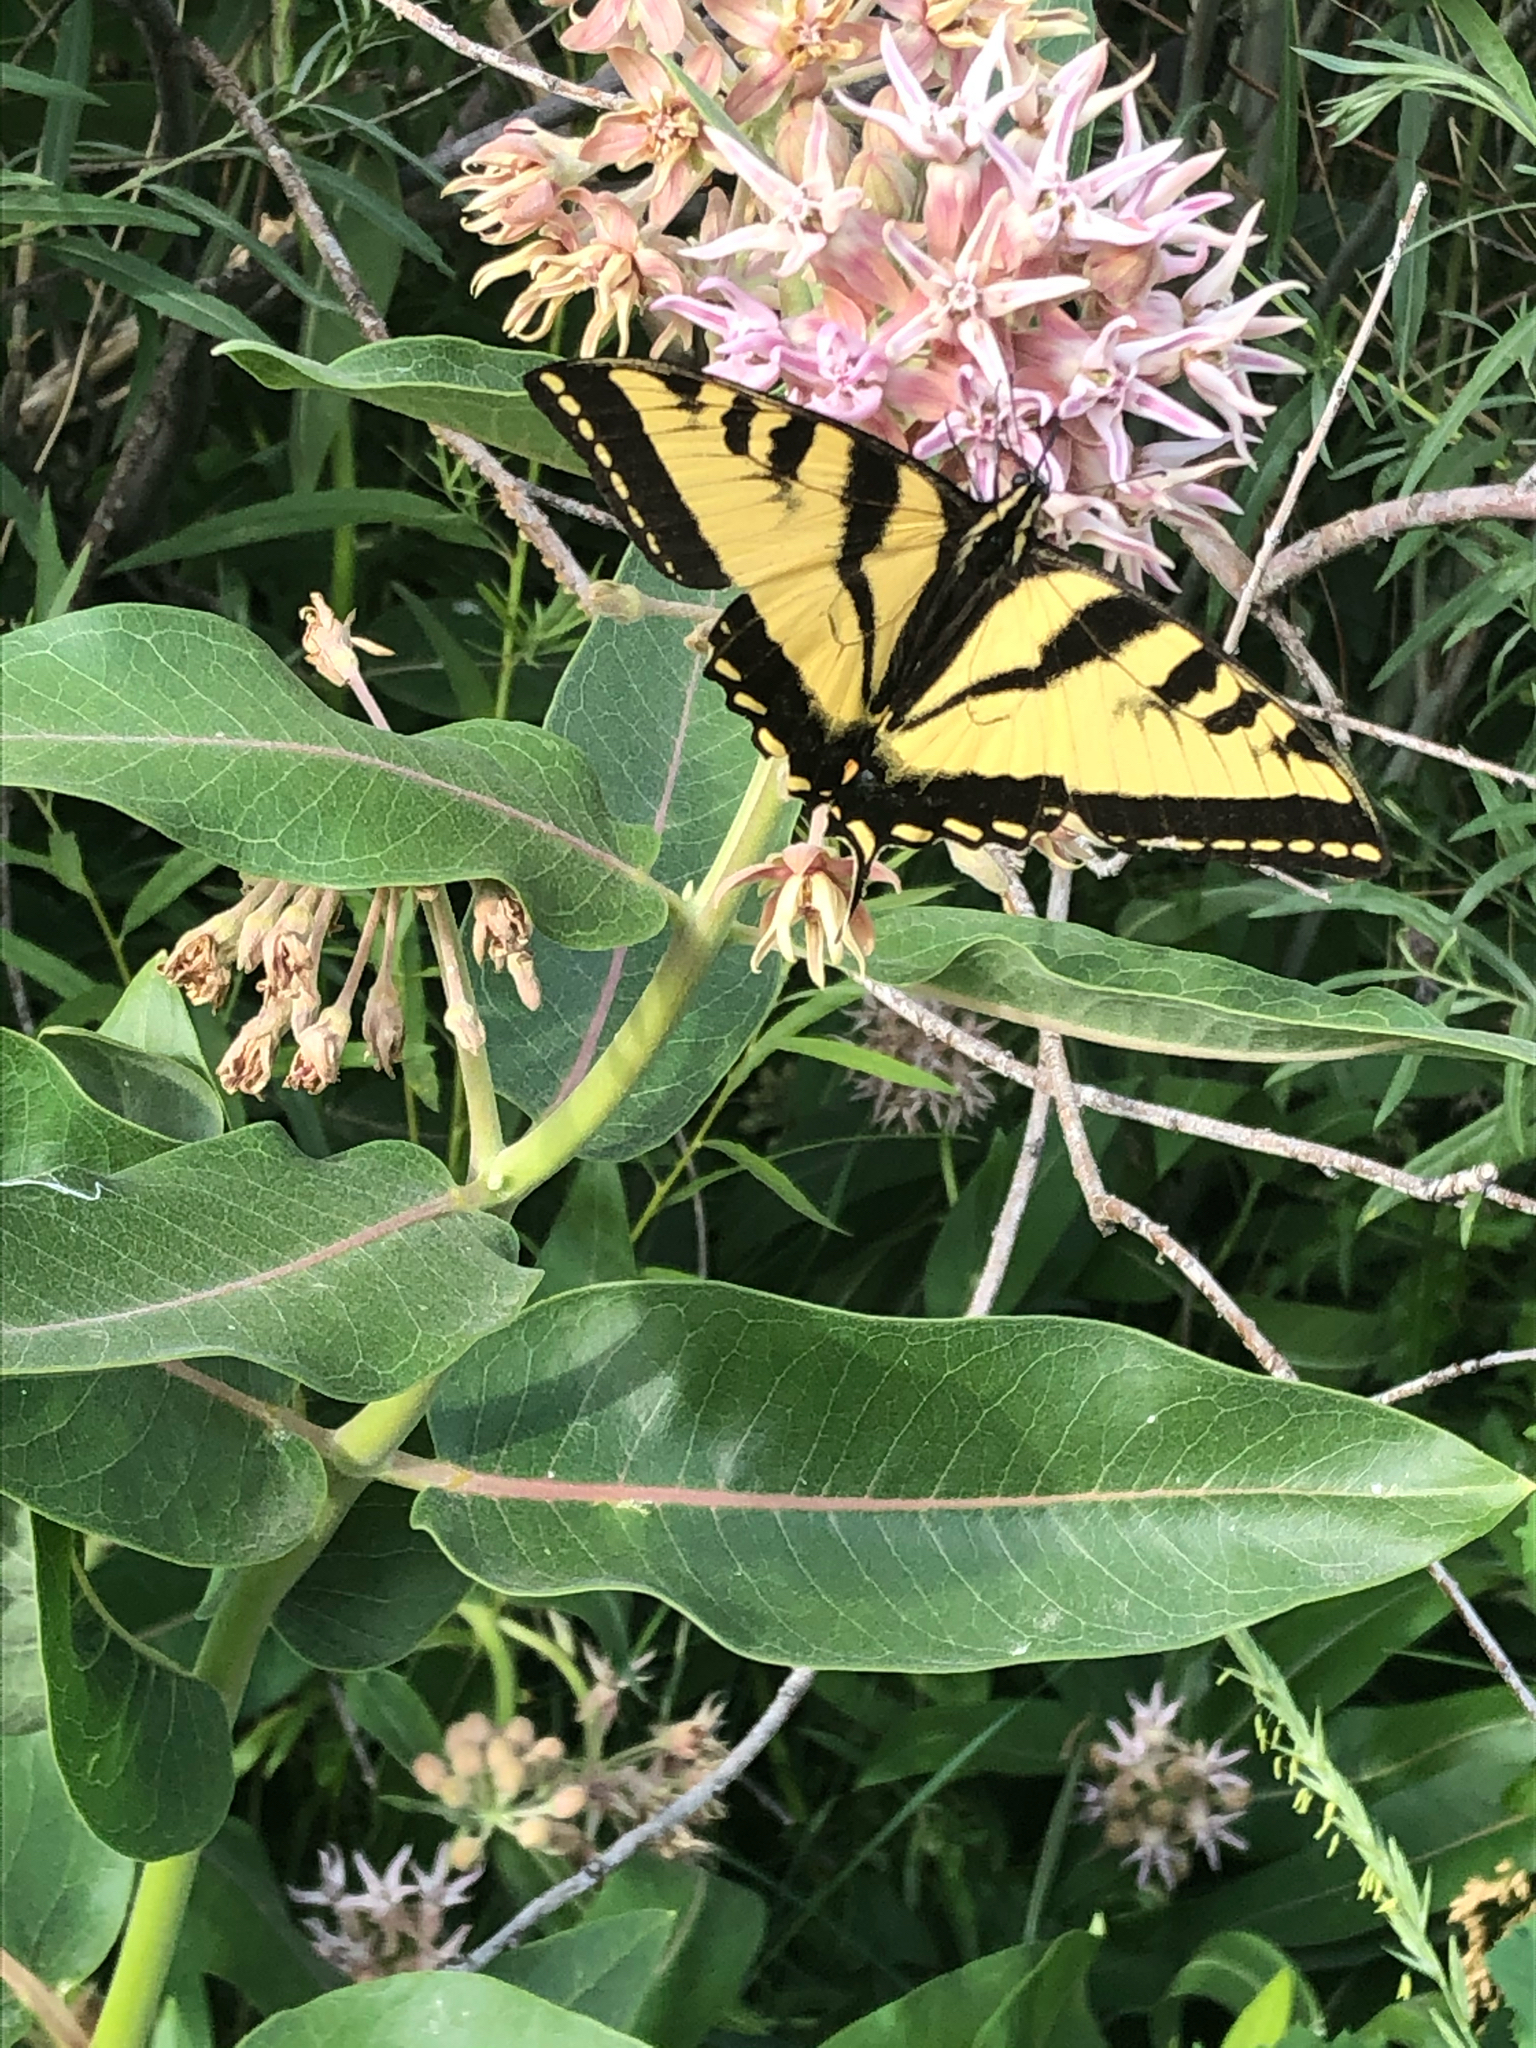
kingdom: Animalia
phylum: Arthropoda
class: Insecta
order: Lepidoptera
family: Papilionidae
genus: Papilio
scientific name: Papilio rutulus
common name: Western tiger swallowtail
